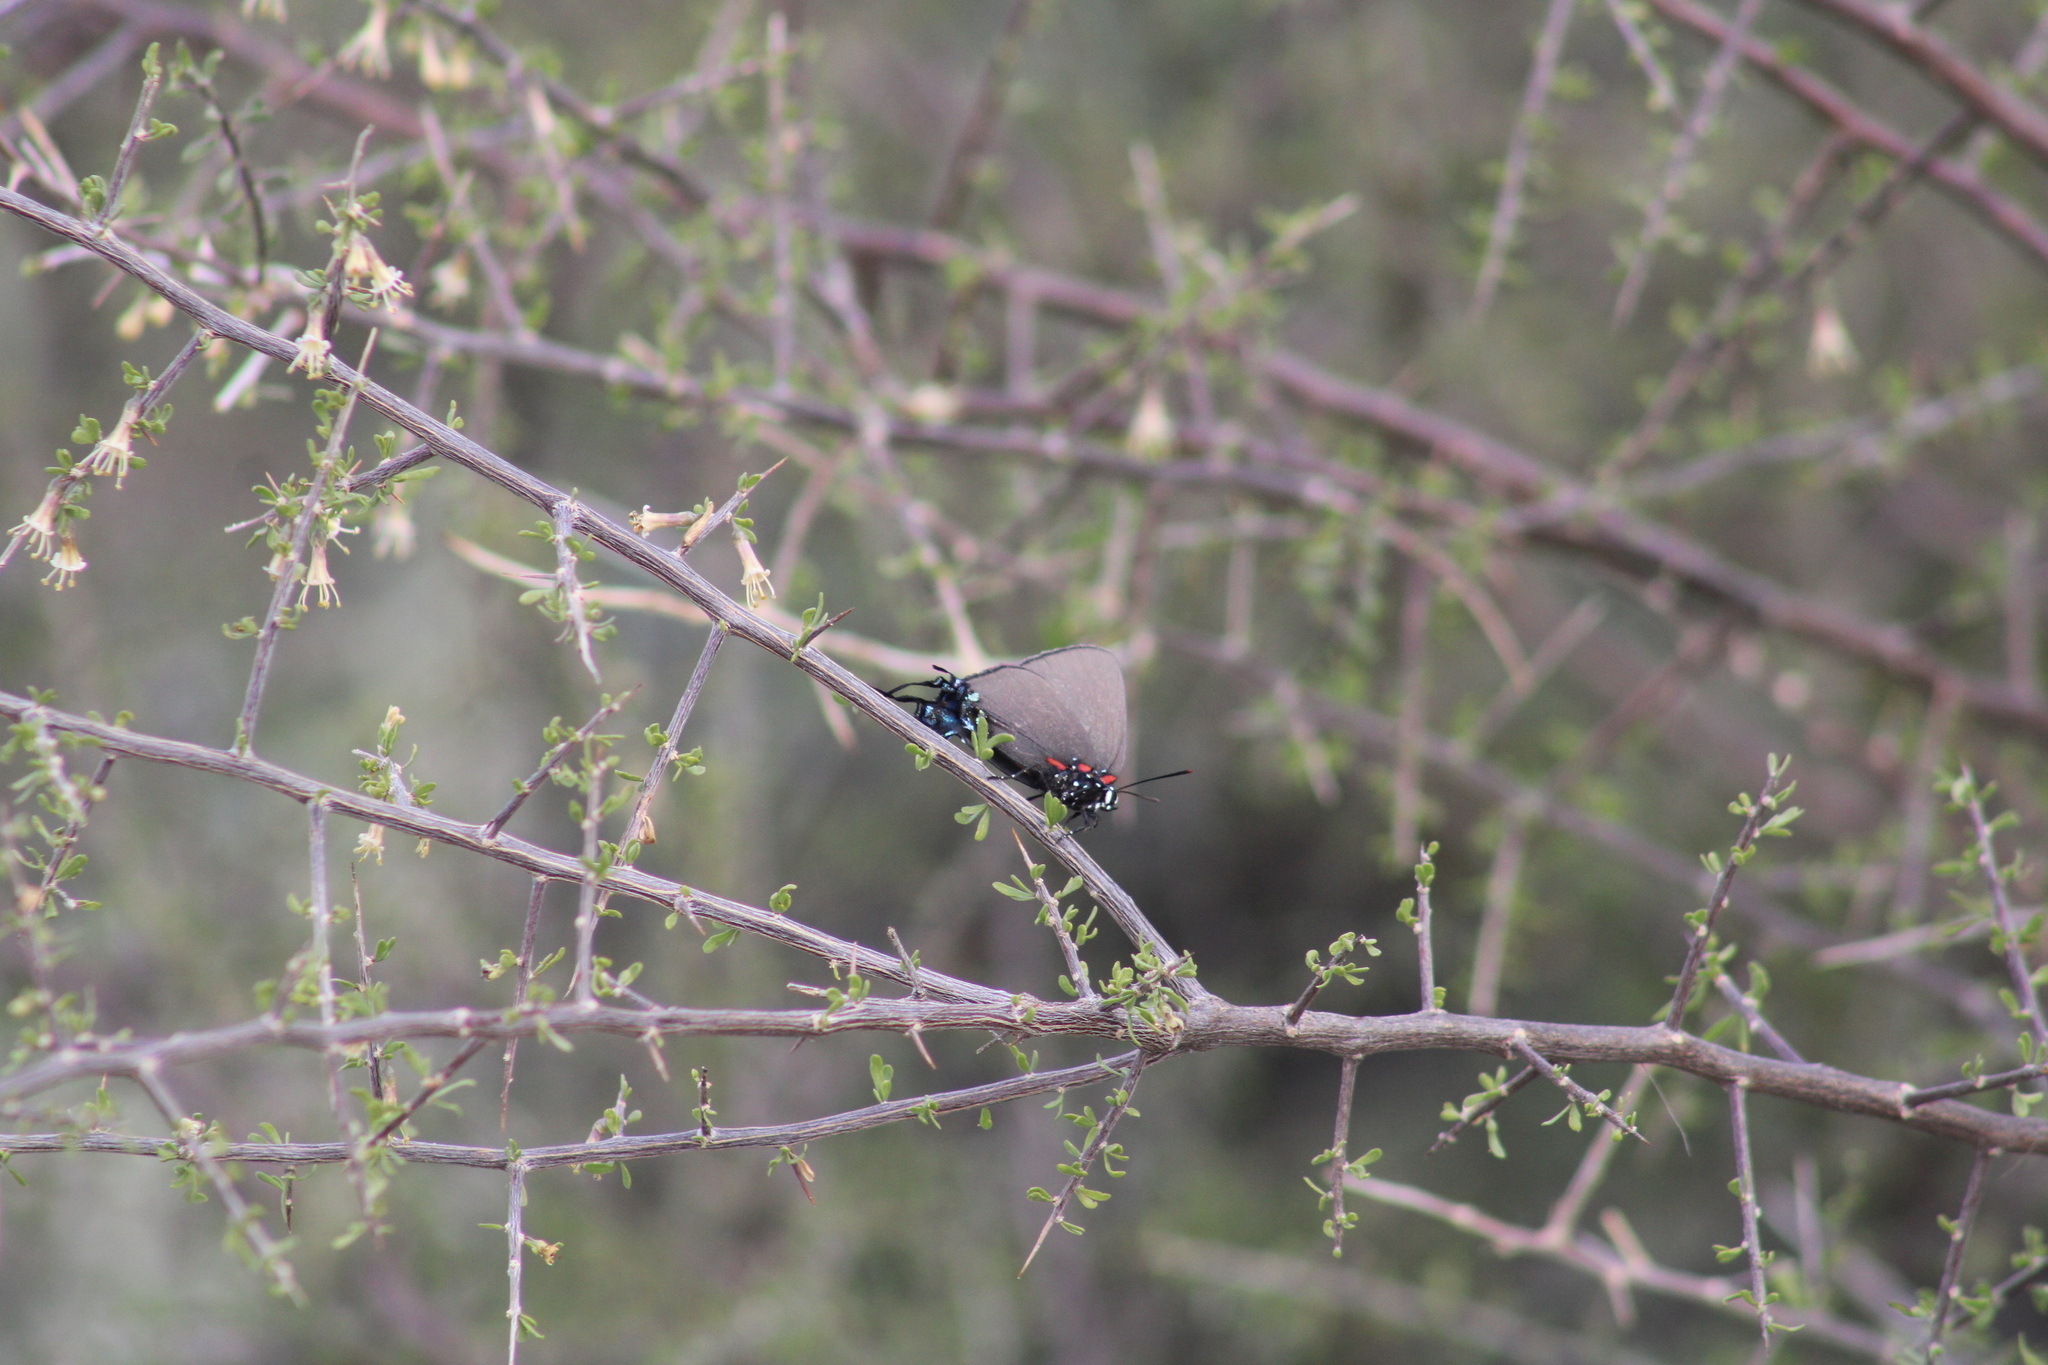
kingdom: Animalia
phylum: Arthropoda
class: Insecta
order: Lepidoptera
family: Lycaenidae
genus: Atlides
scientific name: Atlides halesus
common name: Great purple hairstreak
